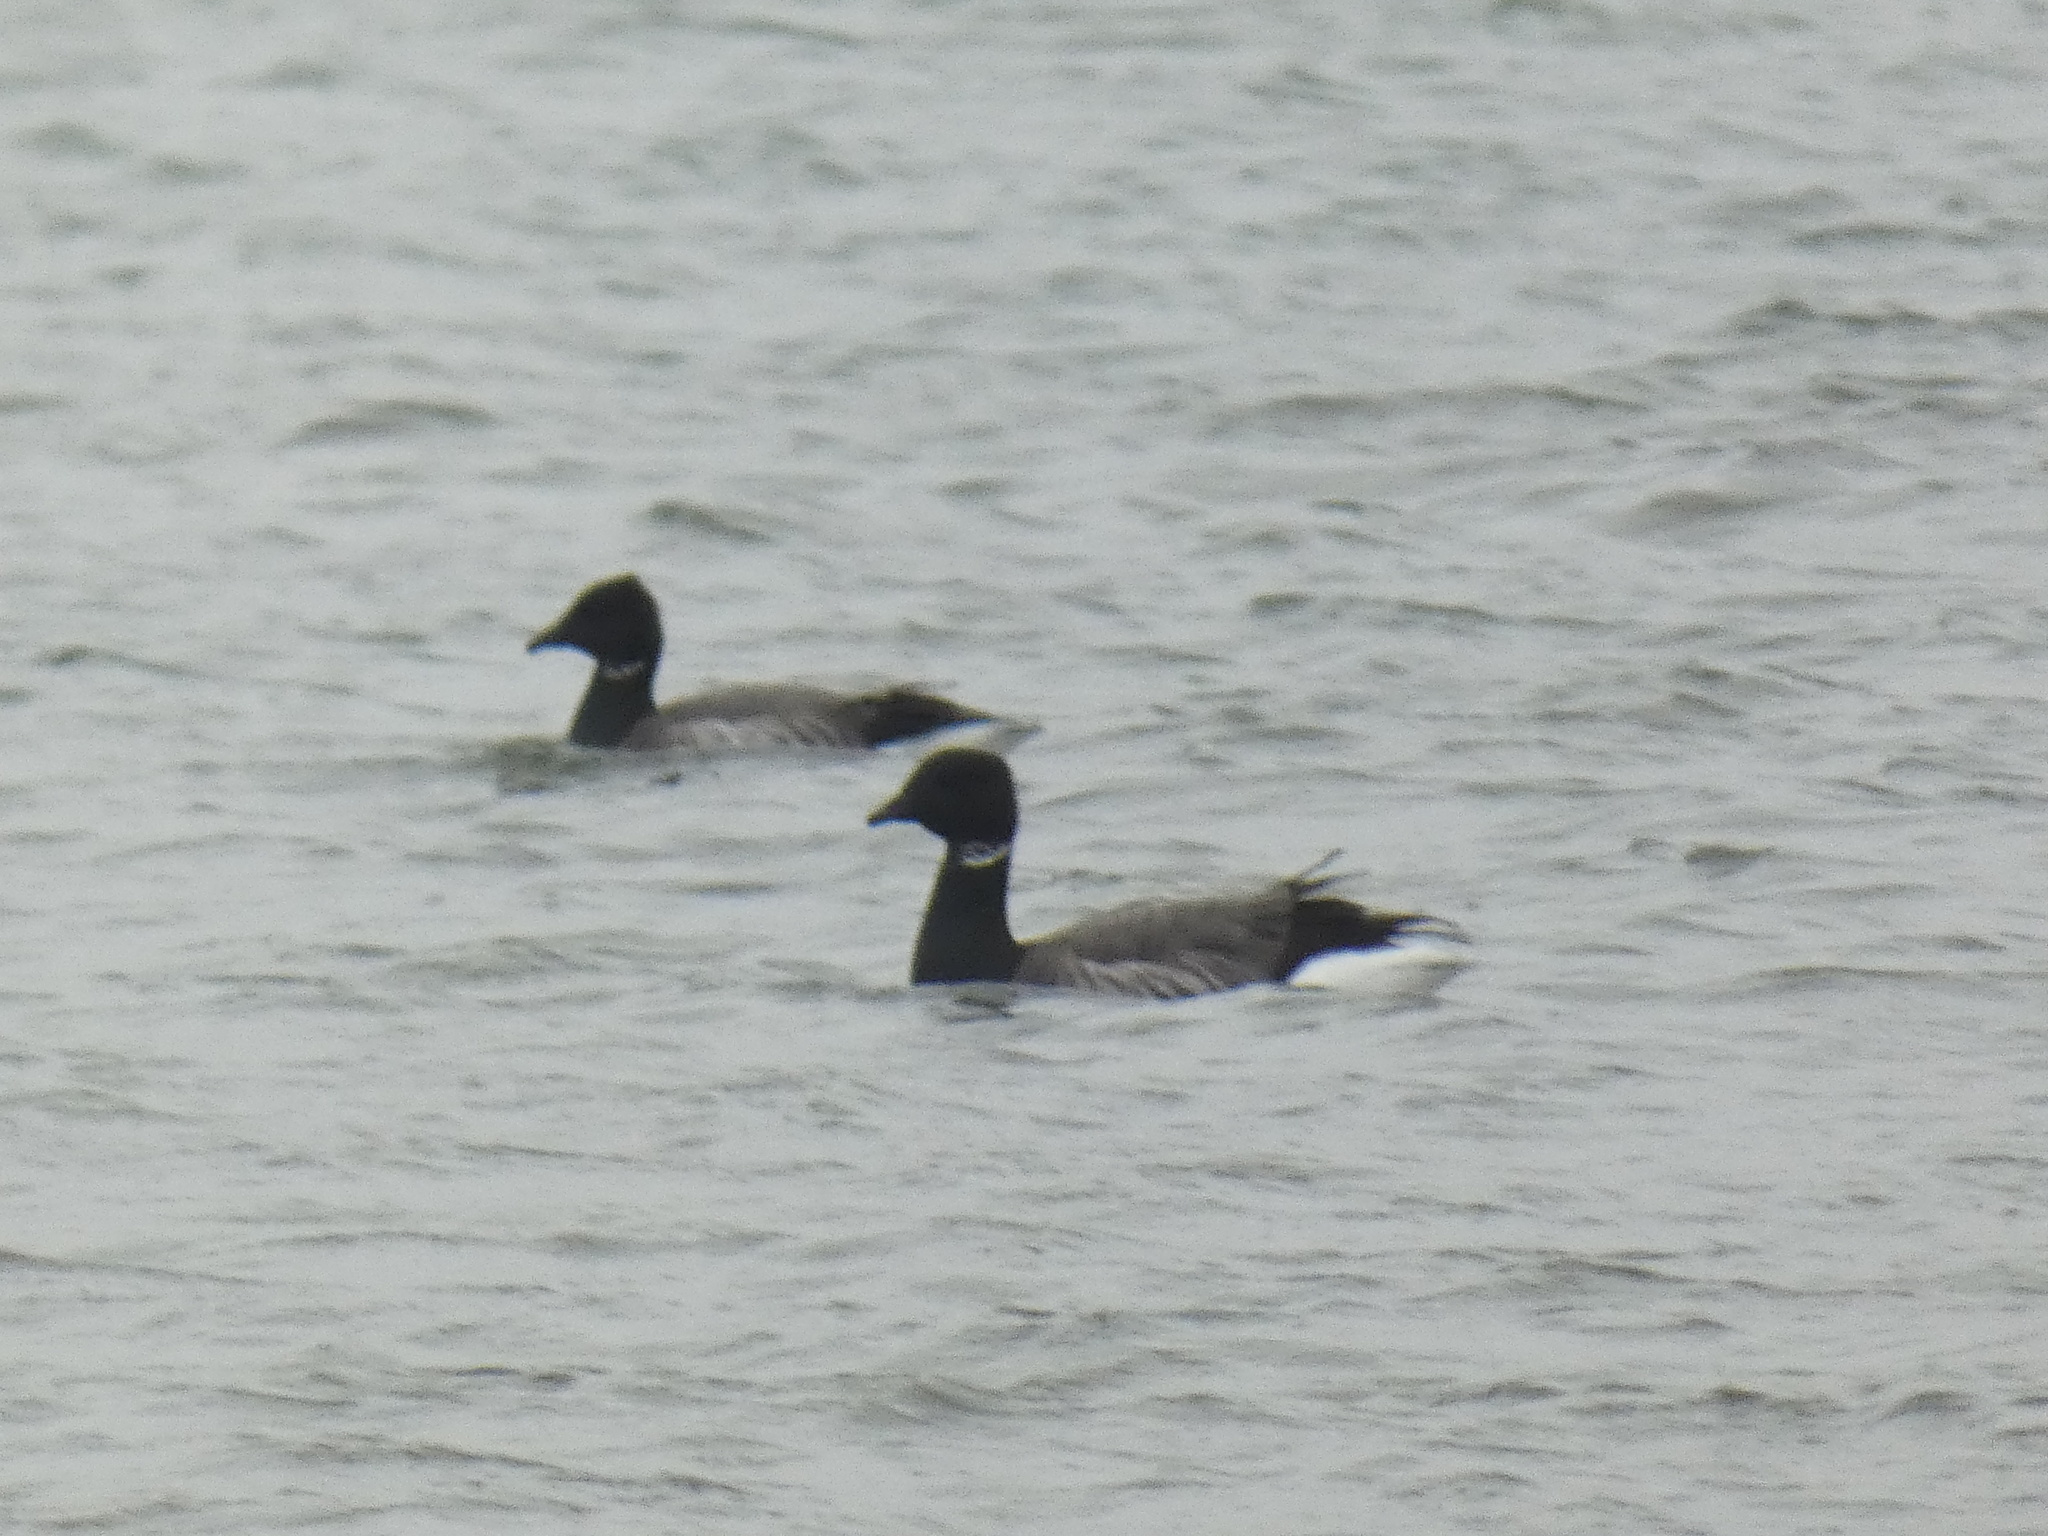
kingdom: Animalia
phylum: Chordata
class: Aves
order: Anseriformes
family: Anatidae
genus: Branta
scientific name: Branta bernicla
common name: Brant goose
